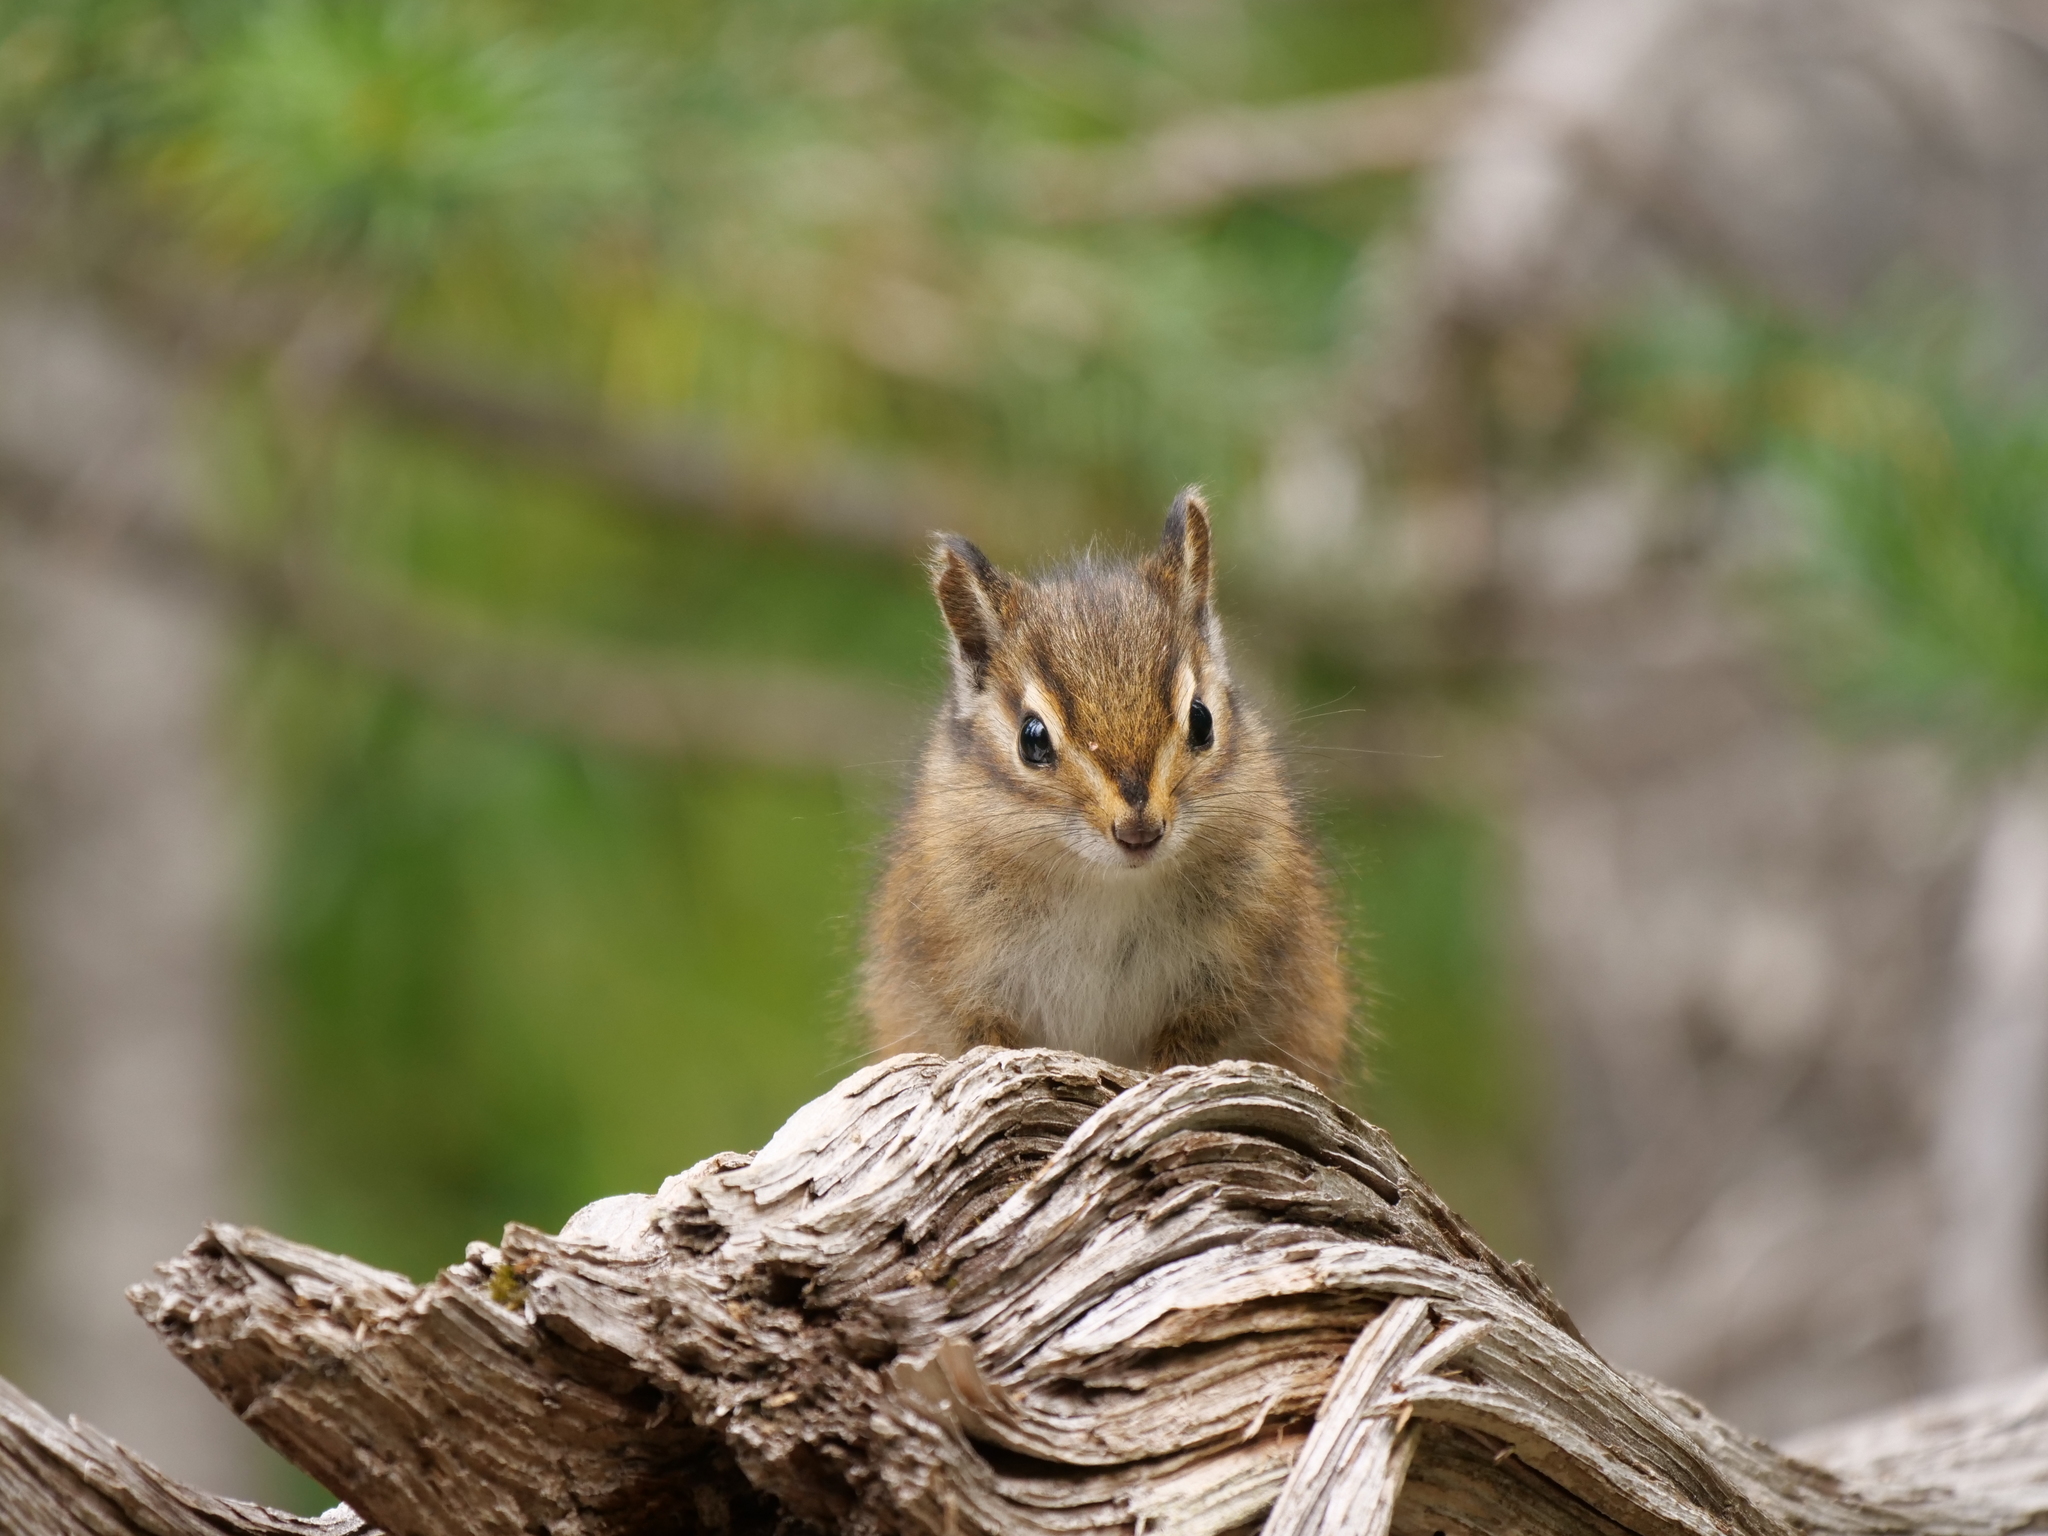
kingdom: Animalia
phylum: Chordata
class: Mammalia
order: Rodentia
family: Sciuridae
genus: Tamias
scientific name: Tamias townsendii
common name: Townsend's chipmunk
